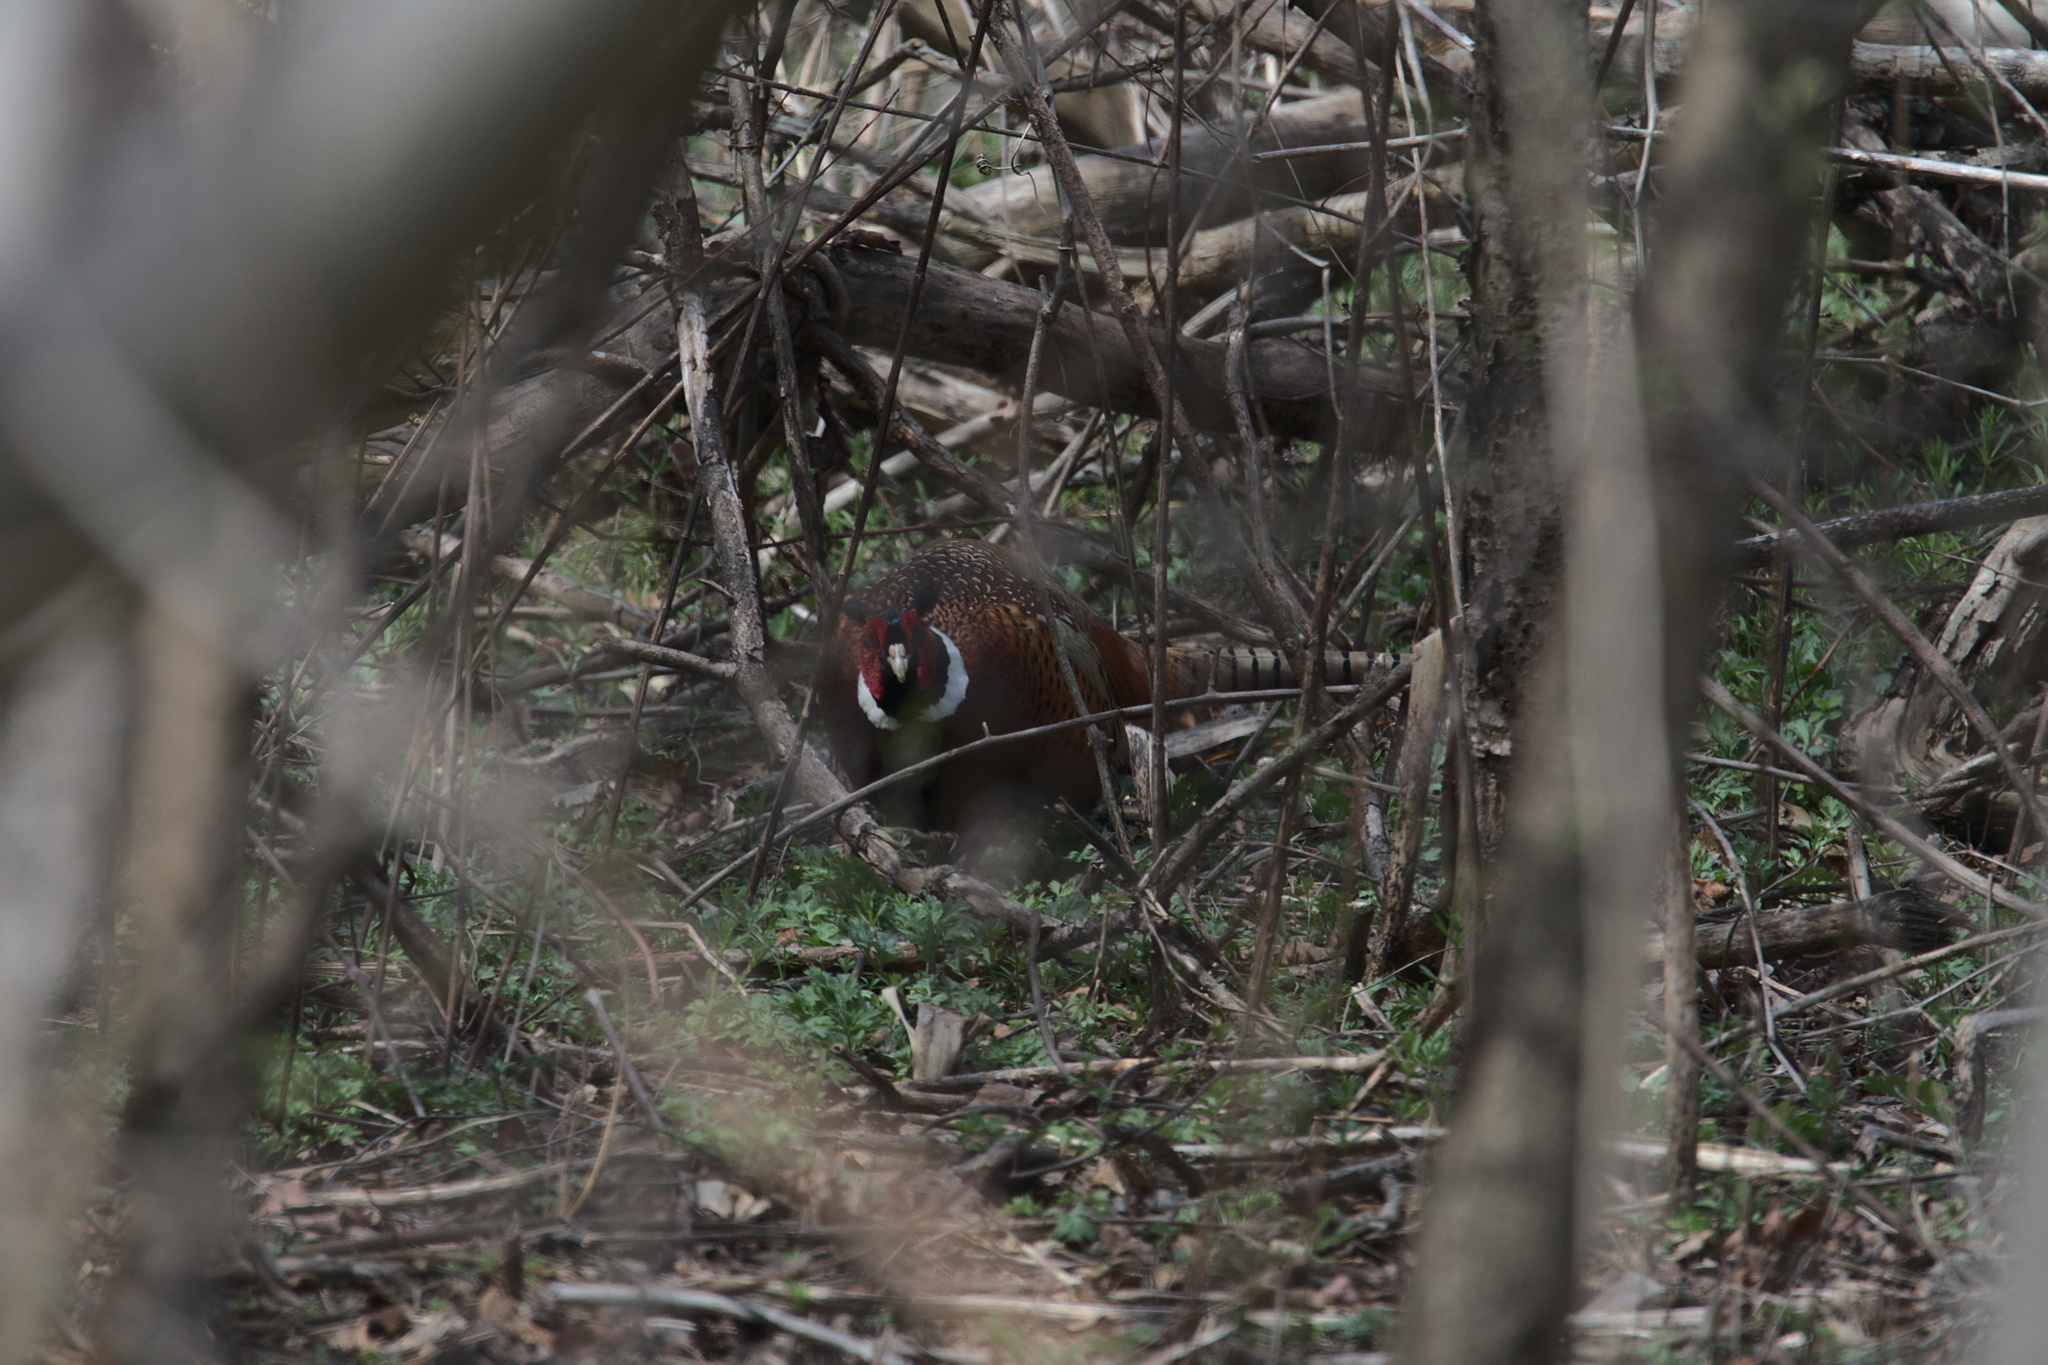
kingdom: Animalia
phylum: Chordata
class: Aves
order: Galliformes
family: Phasianidae
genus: Phasianus
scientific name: Phasianus colchicus
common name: Common pheasant
